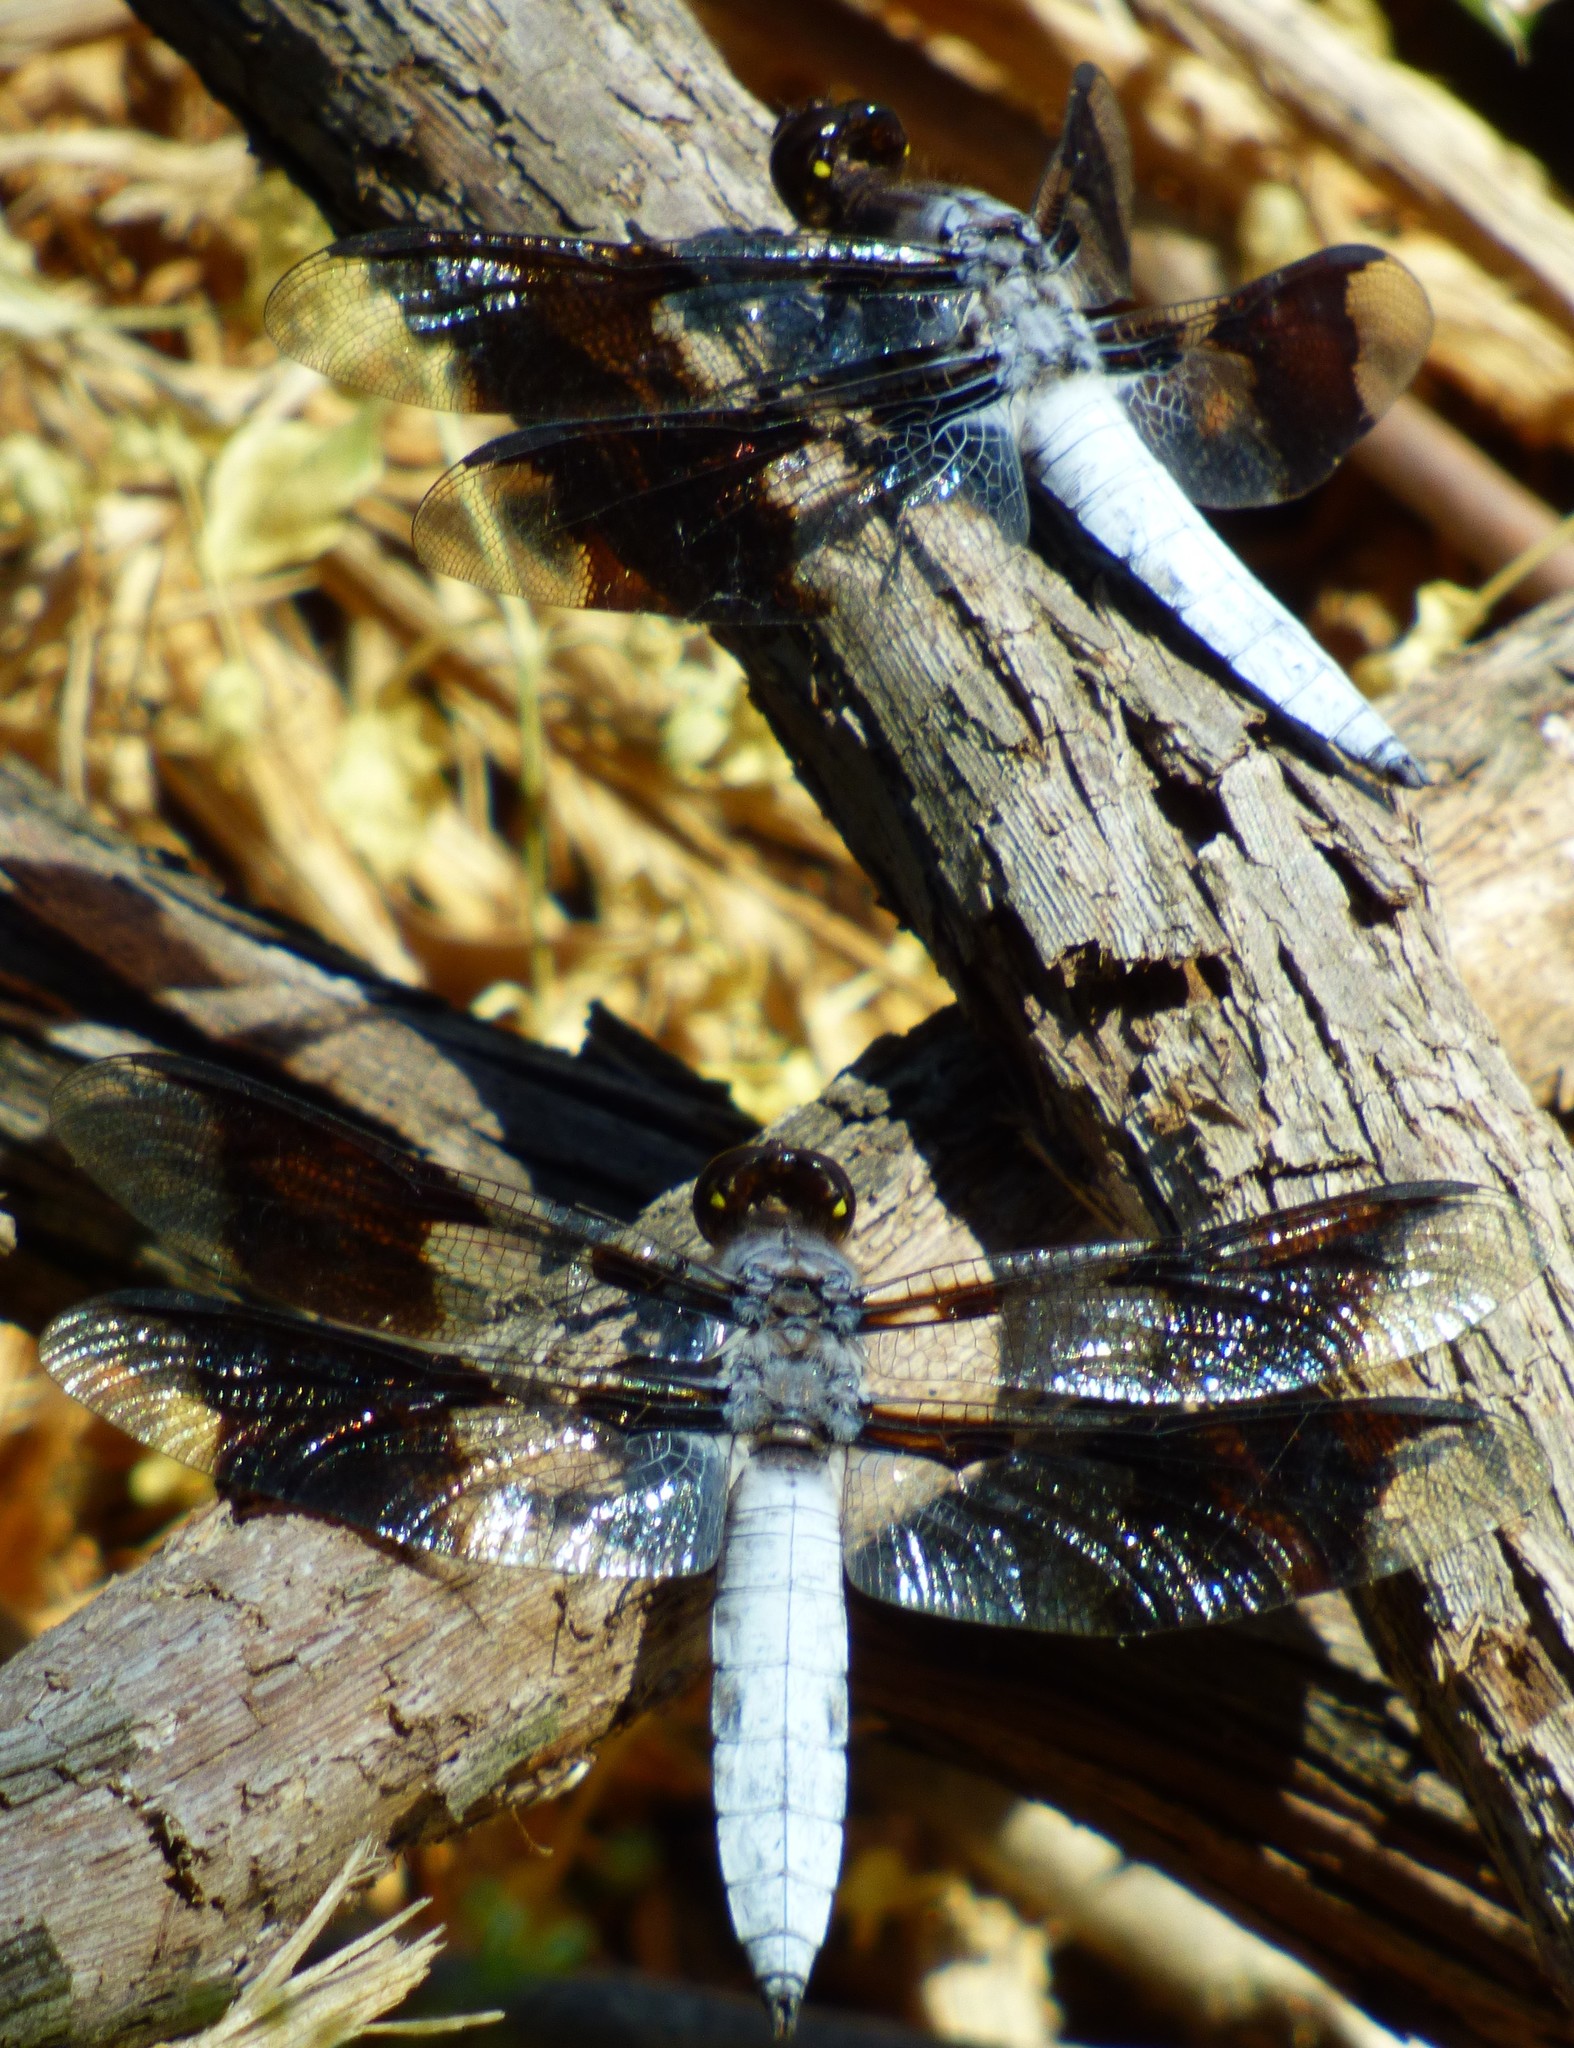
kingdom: Animalia
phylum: Arthropoda
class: Insecta
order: Odonata
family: Libellulidae
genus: Plathemis
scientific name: Plathemis lydia
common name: Common whitetail
